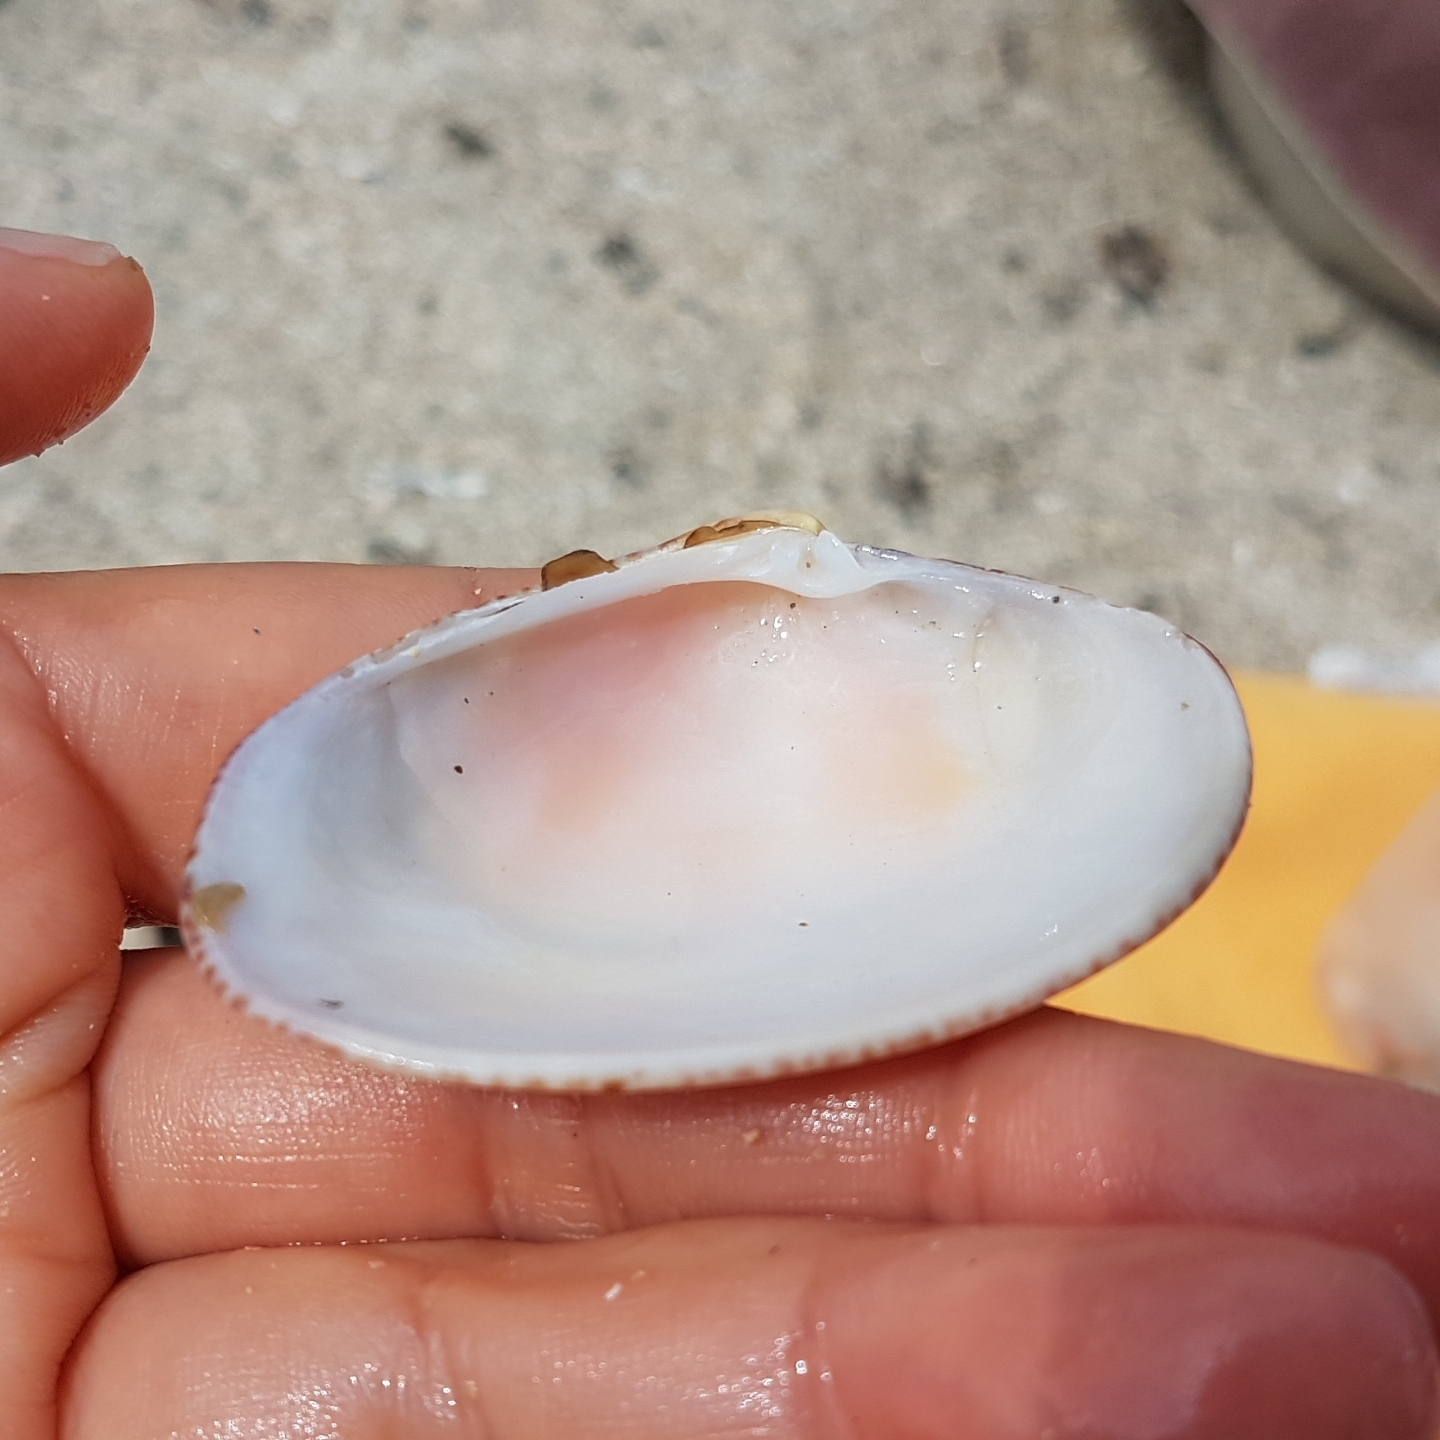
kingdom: Animalia
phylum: Mollusca
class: Bivalvia
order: Venerida
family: Veneridae
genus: Polititapes
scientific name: Polititapes rhomboides
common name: Banded carpet shell
